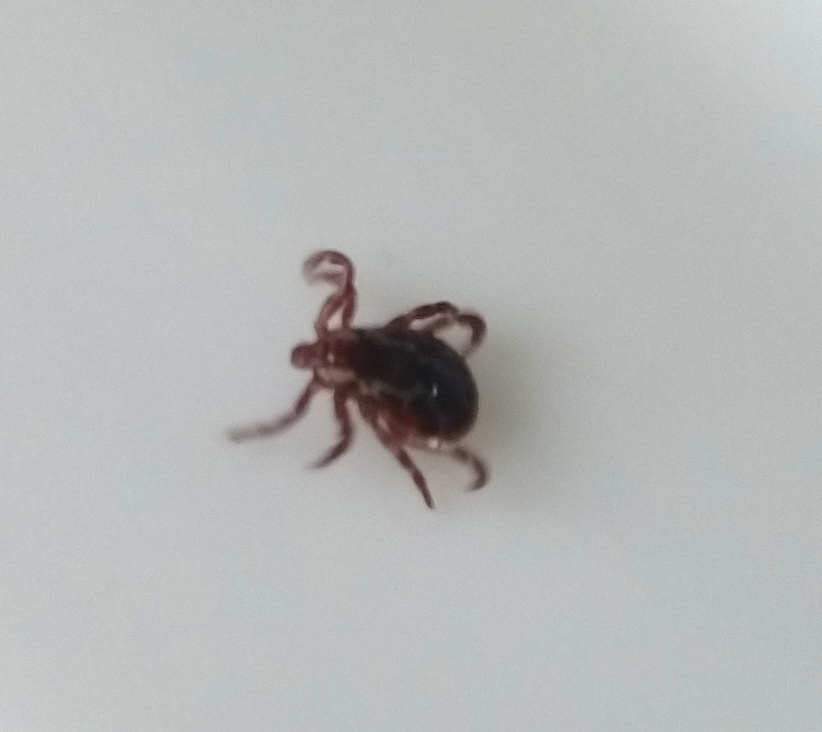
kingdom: Animalia
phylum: Arthropoda
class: Arachnida
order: Ixodida
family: Ixodidae
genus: Dermacentor
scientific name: Dermacentor variabilis
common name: American dog tick
